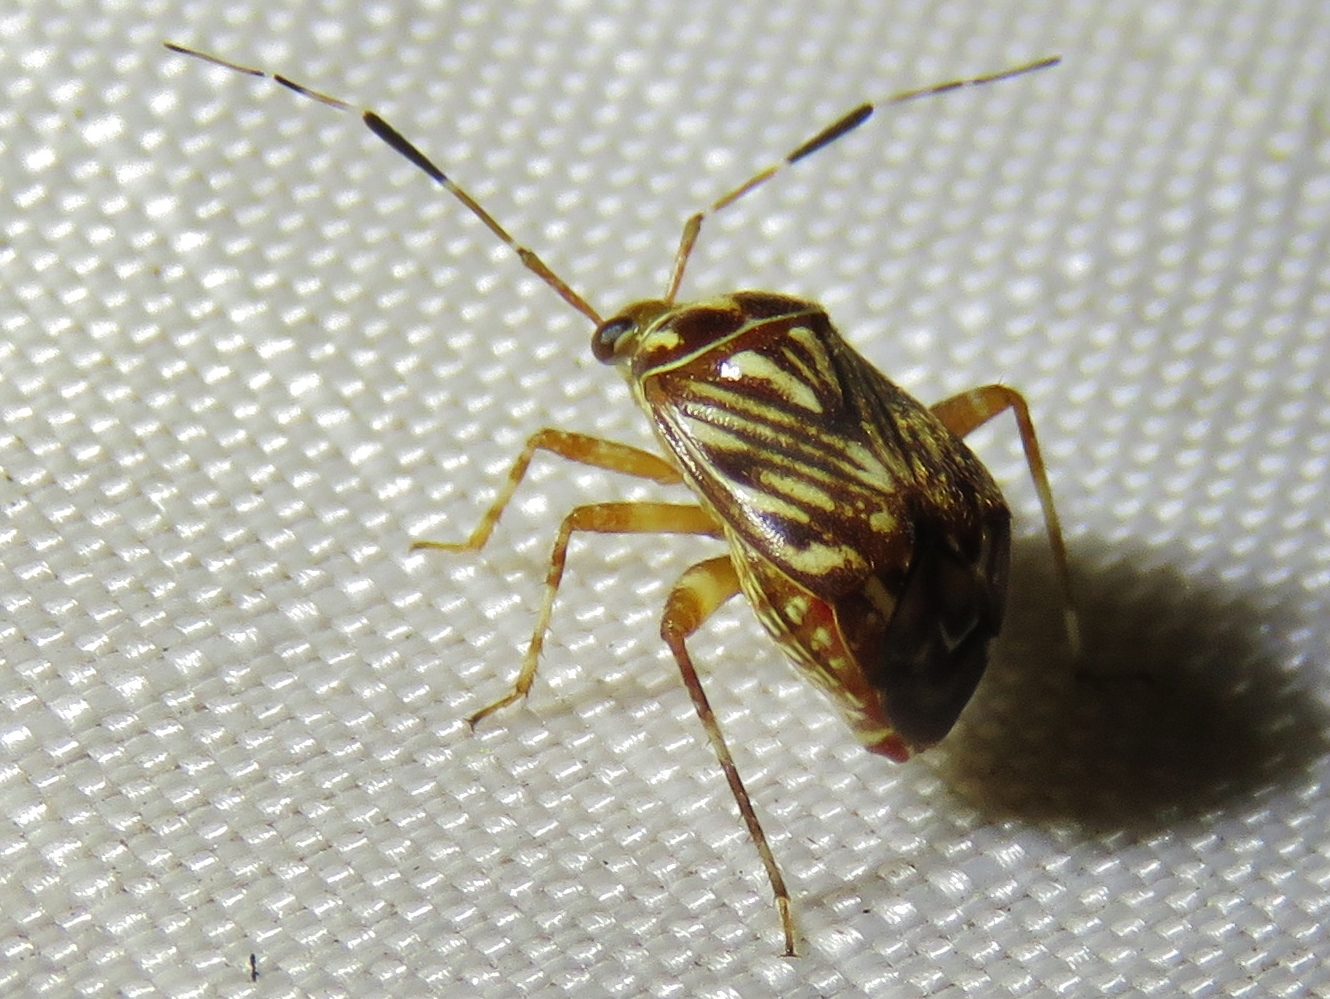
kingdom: Animalia
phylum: Arthropoda
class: Insecta
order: Hemiptera
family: Miridae
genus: Taedia
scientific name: Taedia virgulata
